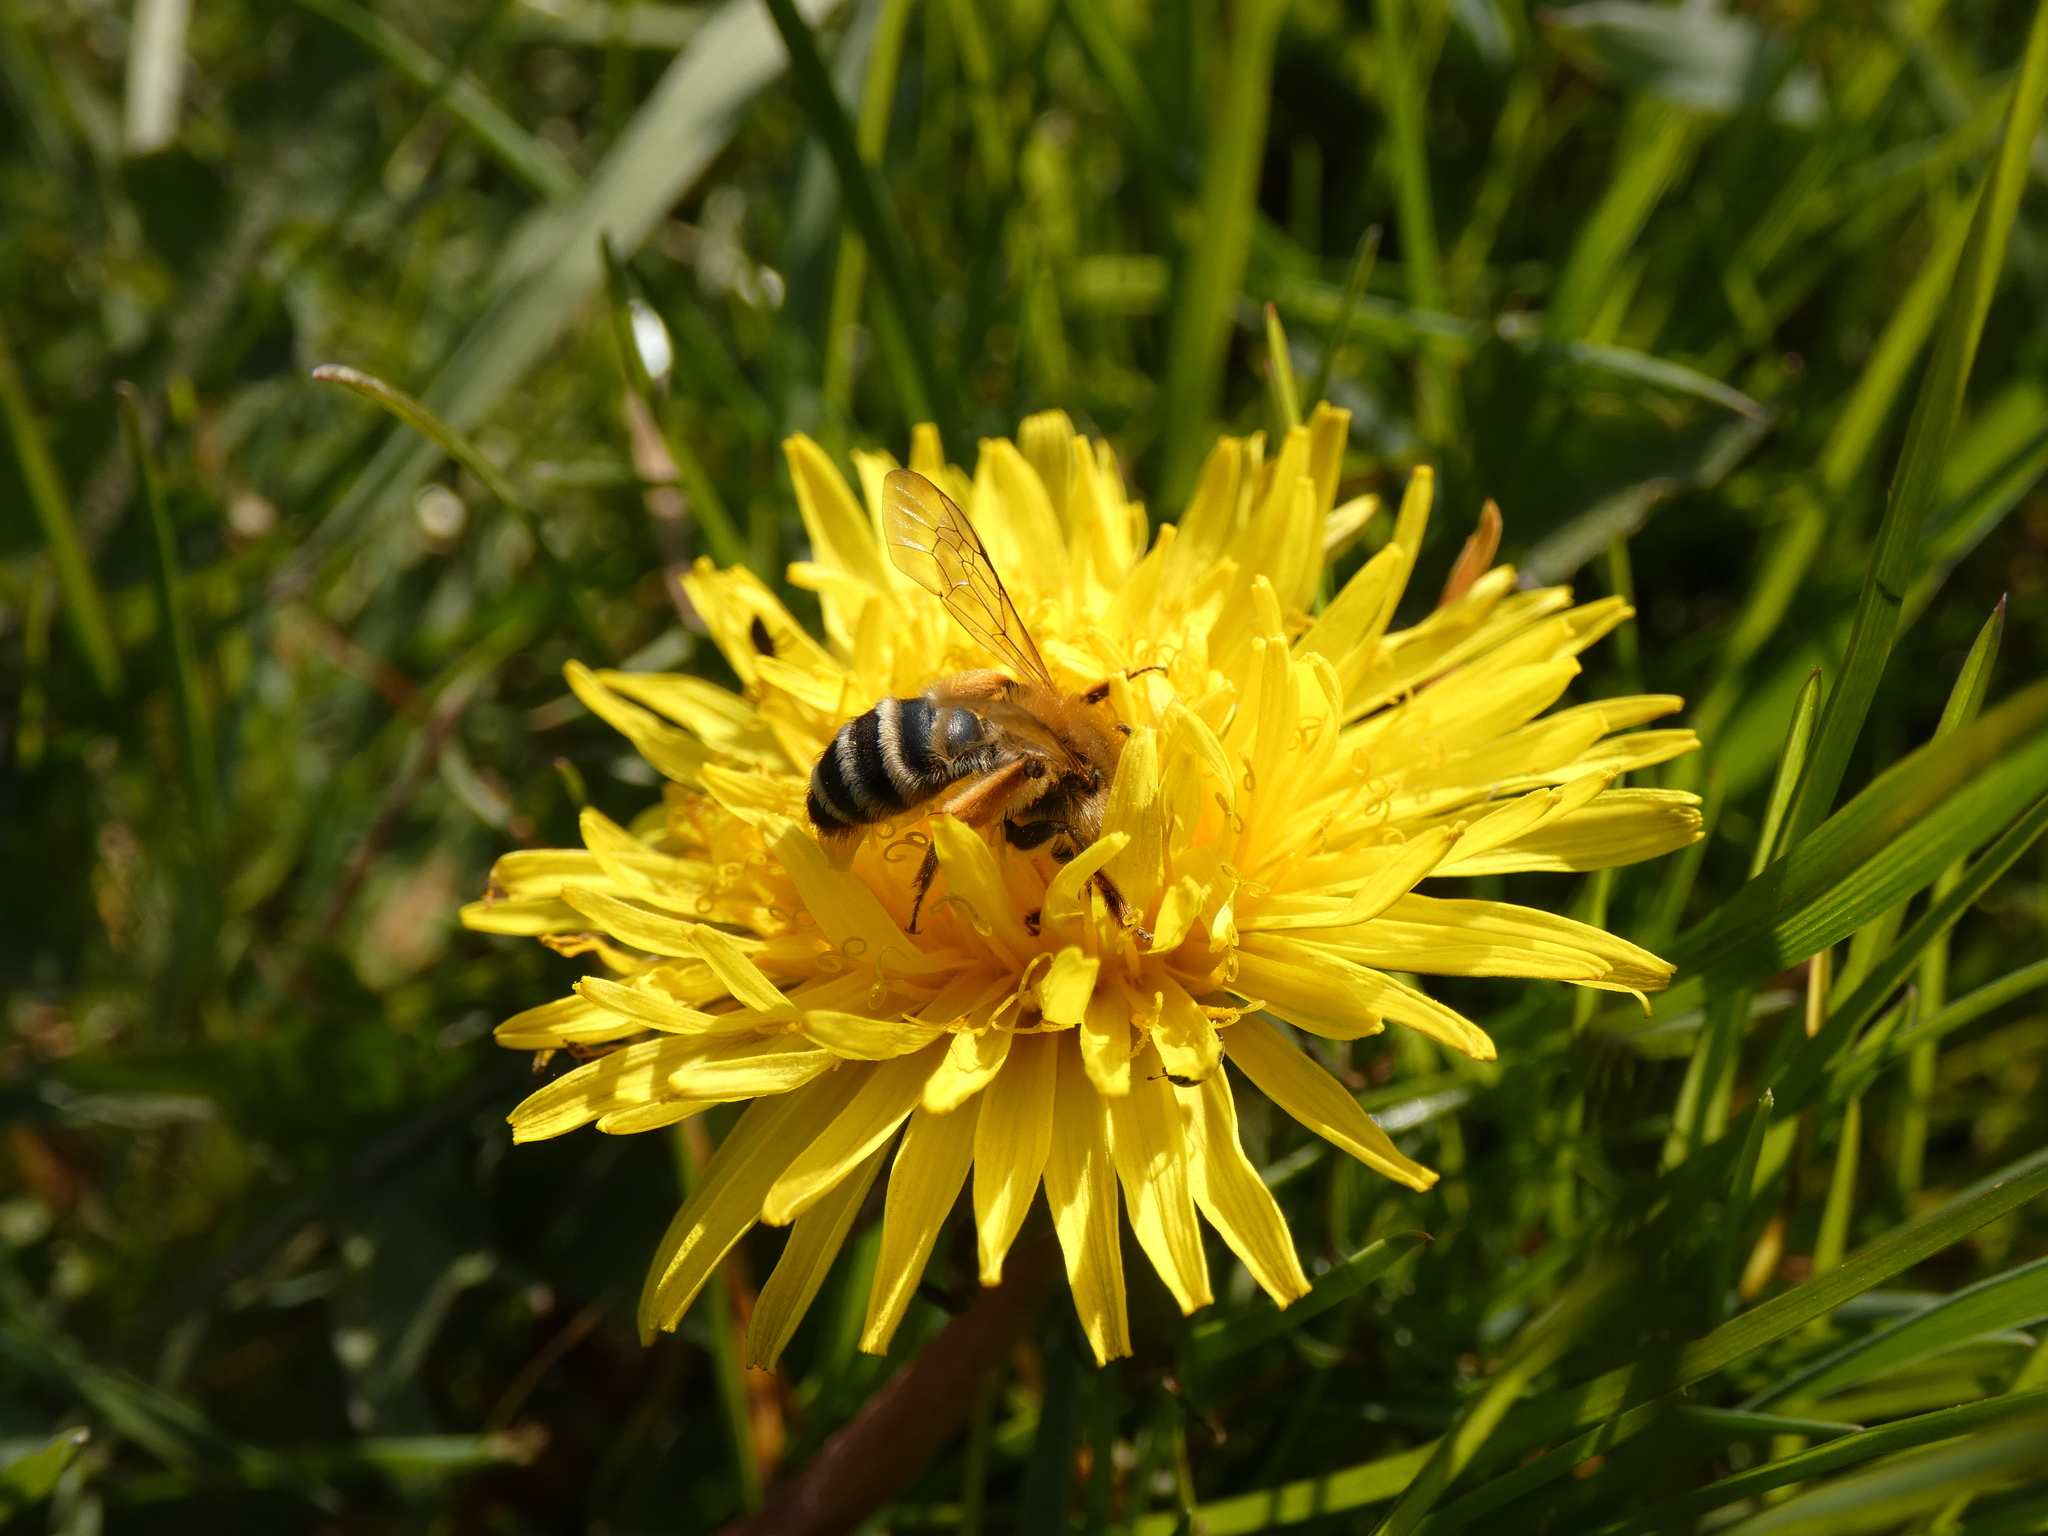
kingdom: Animalia
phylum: Arthropoda
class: Insecta
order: Hymenoptera
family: Andrenidae
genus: Andrena
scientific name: Andrena gravida
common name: White-bellied mining bee
